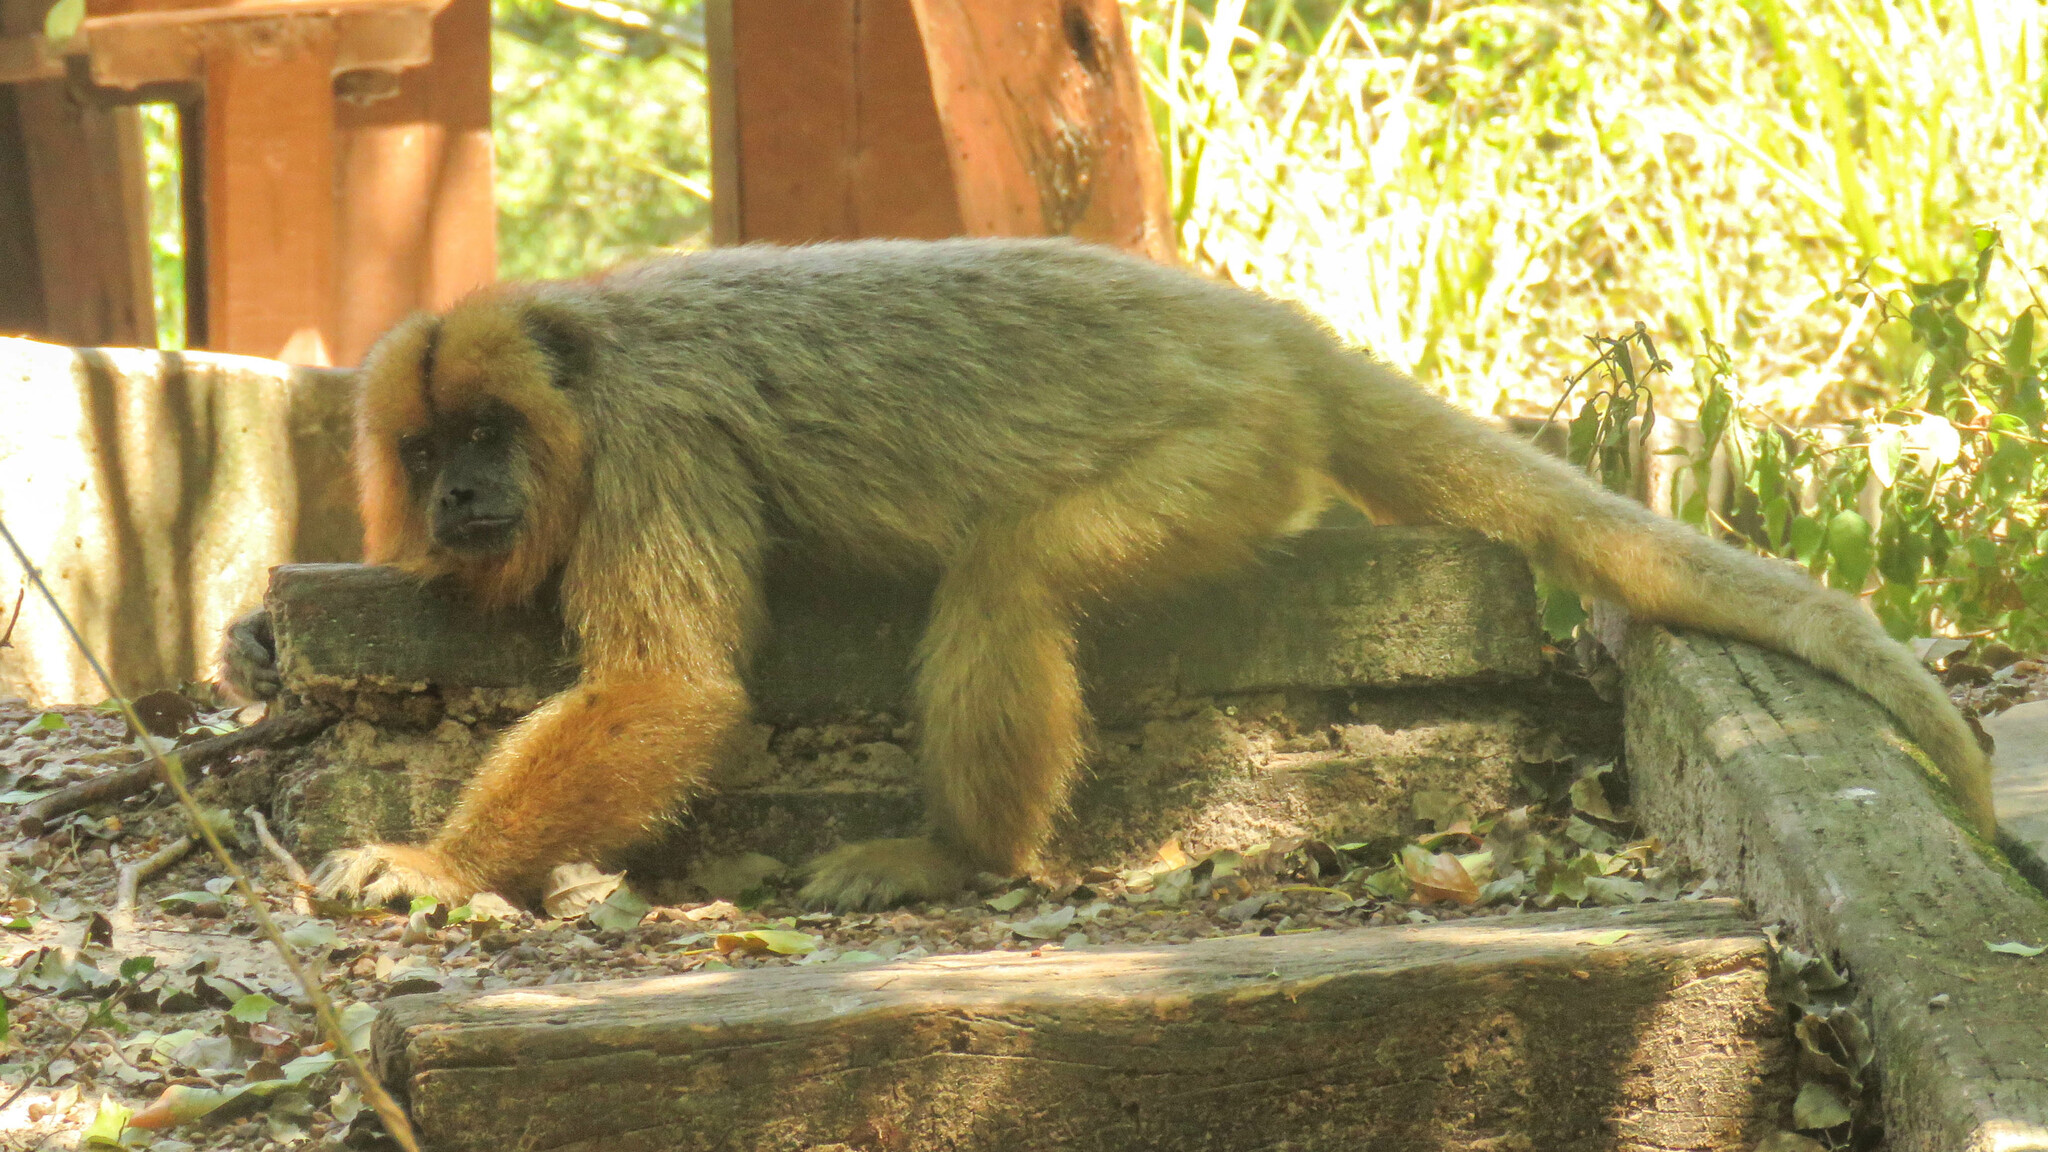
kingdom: Animalia
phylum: Chordata
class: Mammalia
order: Primates
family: Atelidae
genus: Alouatta
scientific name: Alouatta caraya
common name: Black howler
